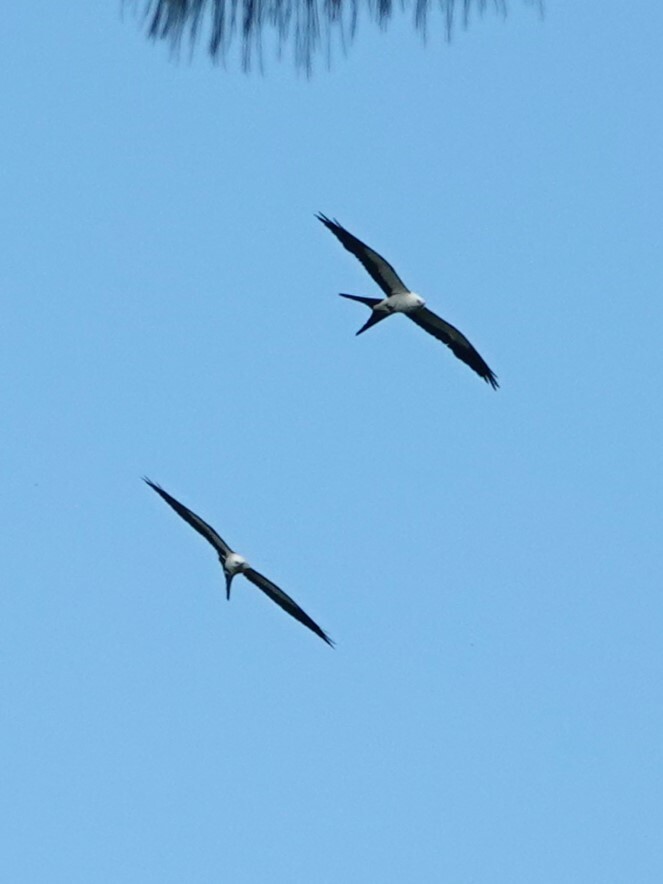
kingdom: Animalia
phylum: Chordata
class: Aves
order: Accipitriformes
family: Accipitridae
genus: Elanoides
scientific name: Elanoides forficatus
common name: Swallow-tailed kite
